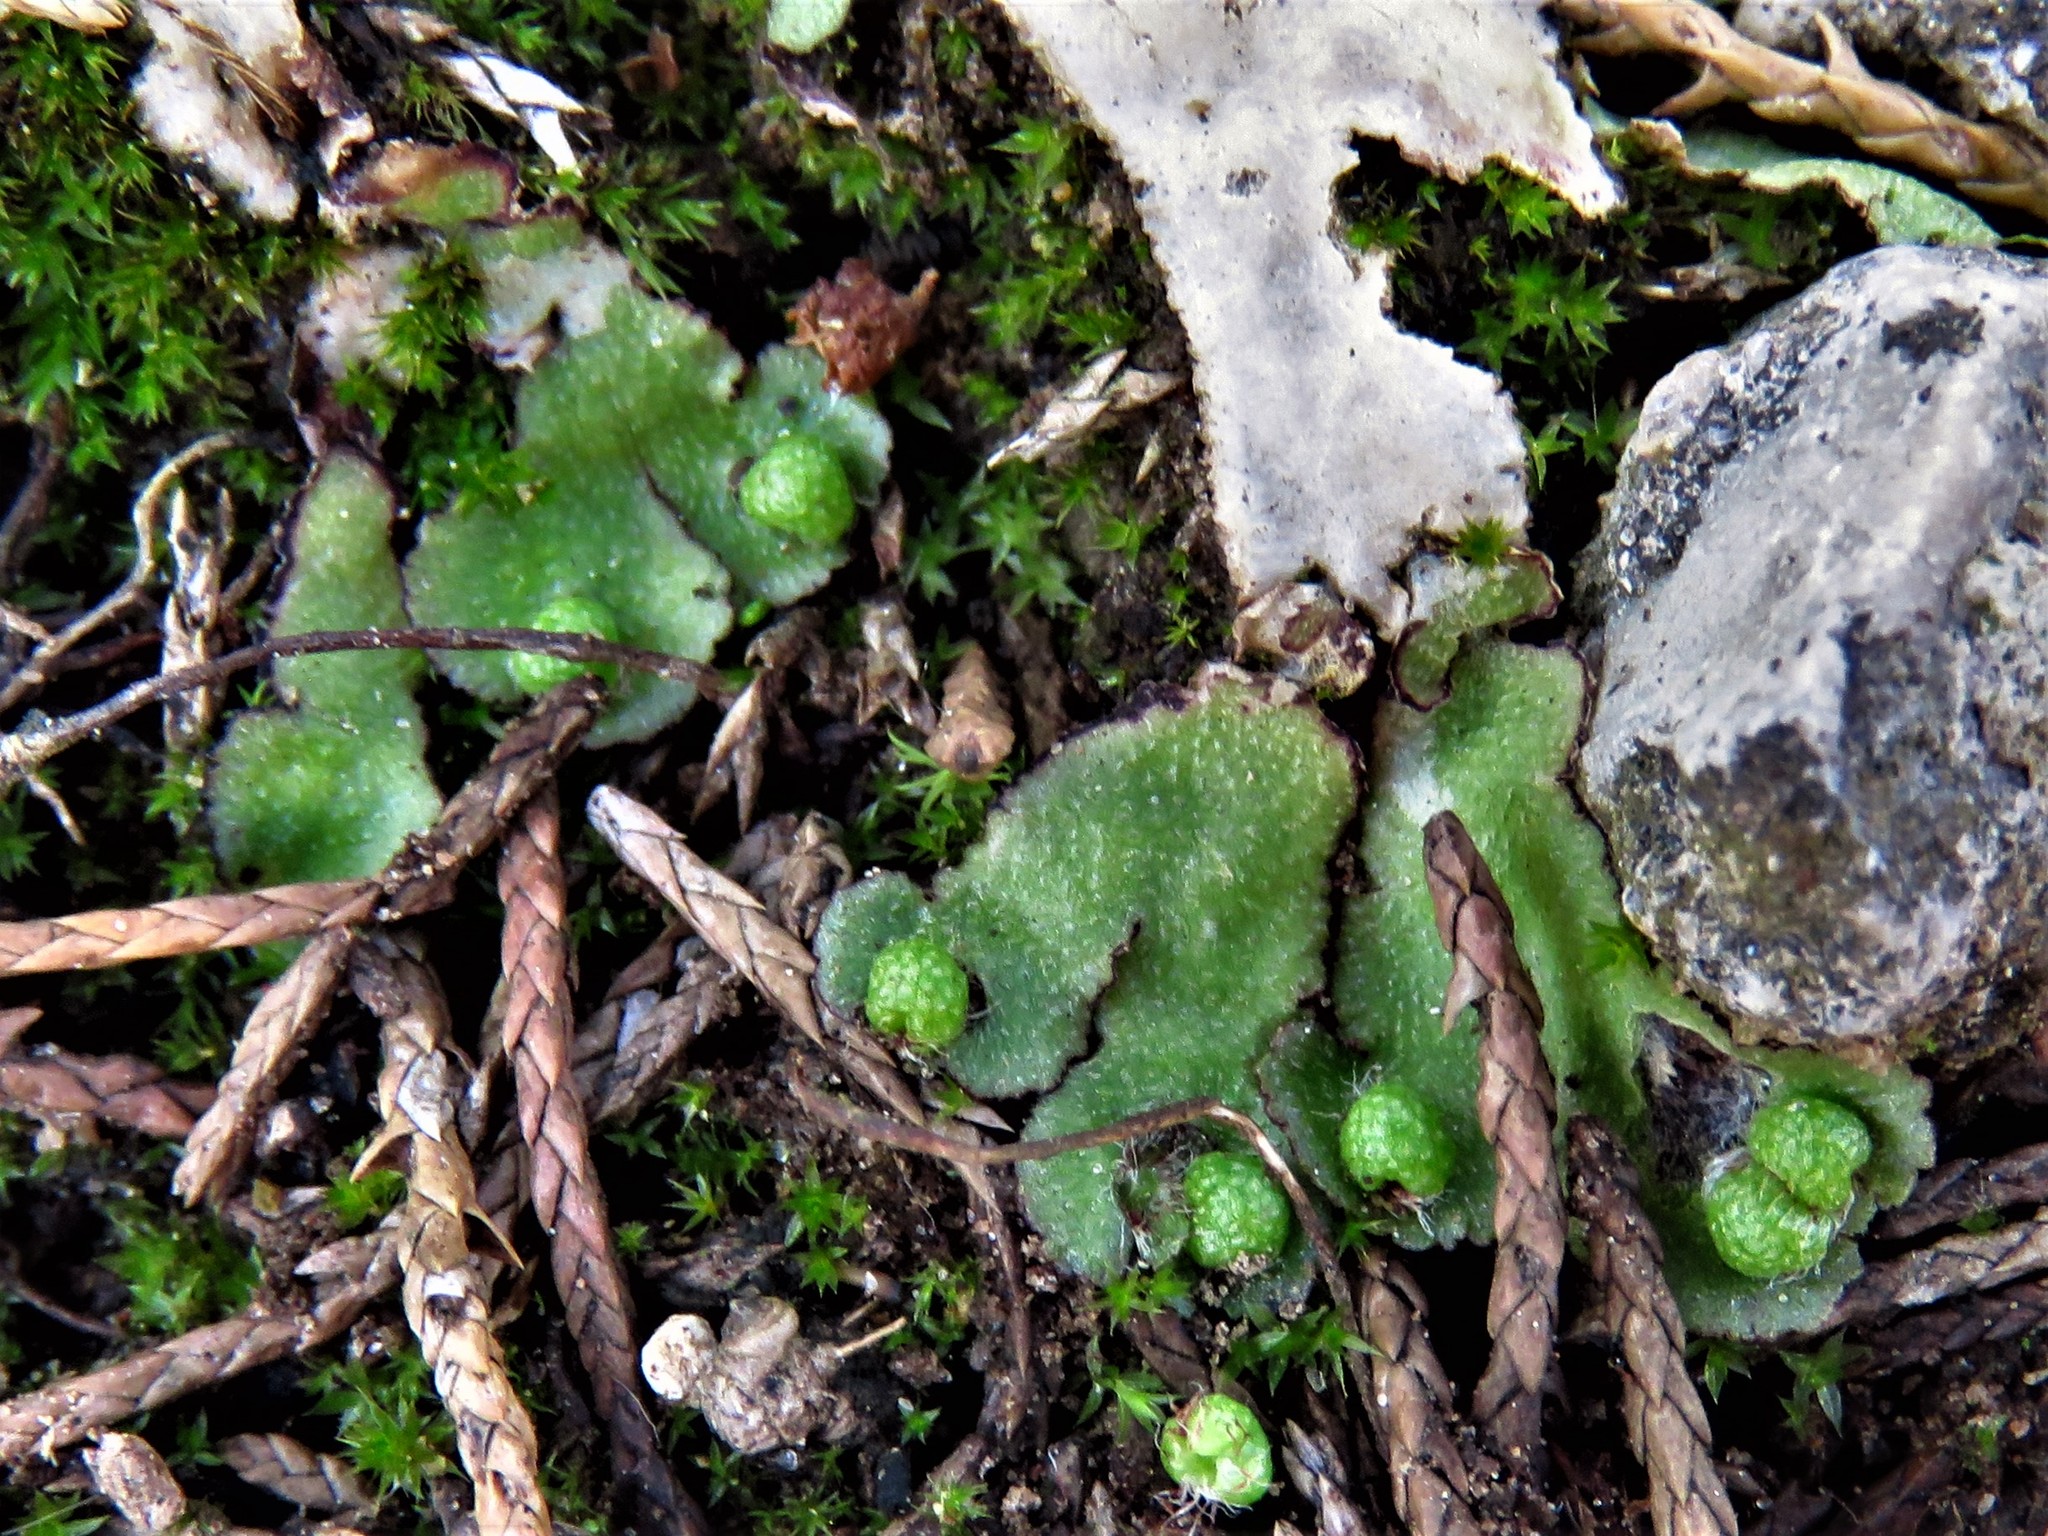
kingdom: Plantae
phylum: Marchantiophyta
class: Marchantiopsida
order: Marchantiales
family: Aytoniaceae
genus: Reboulia
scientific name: Reboulia hemisphaerica
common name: Purple-margined liverwort
